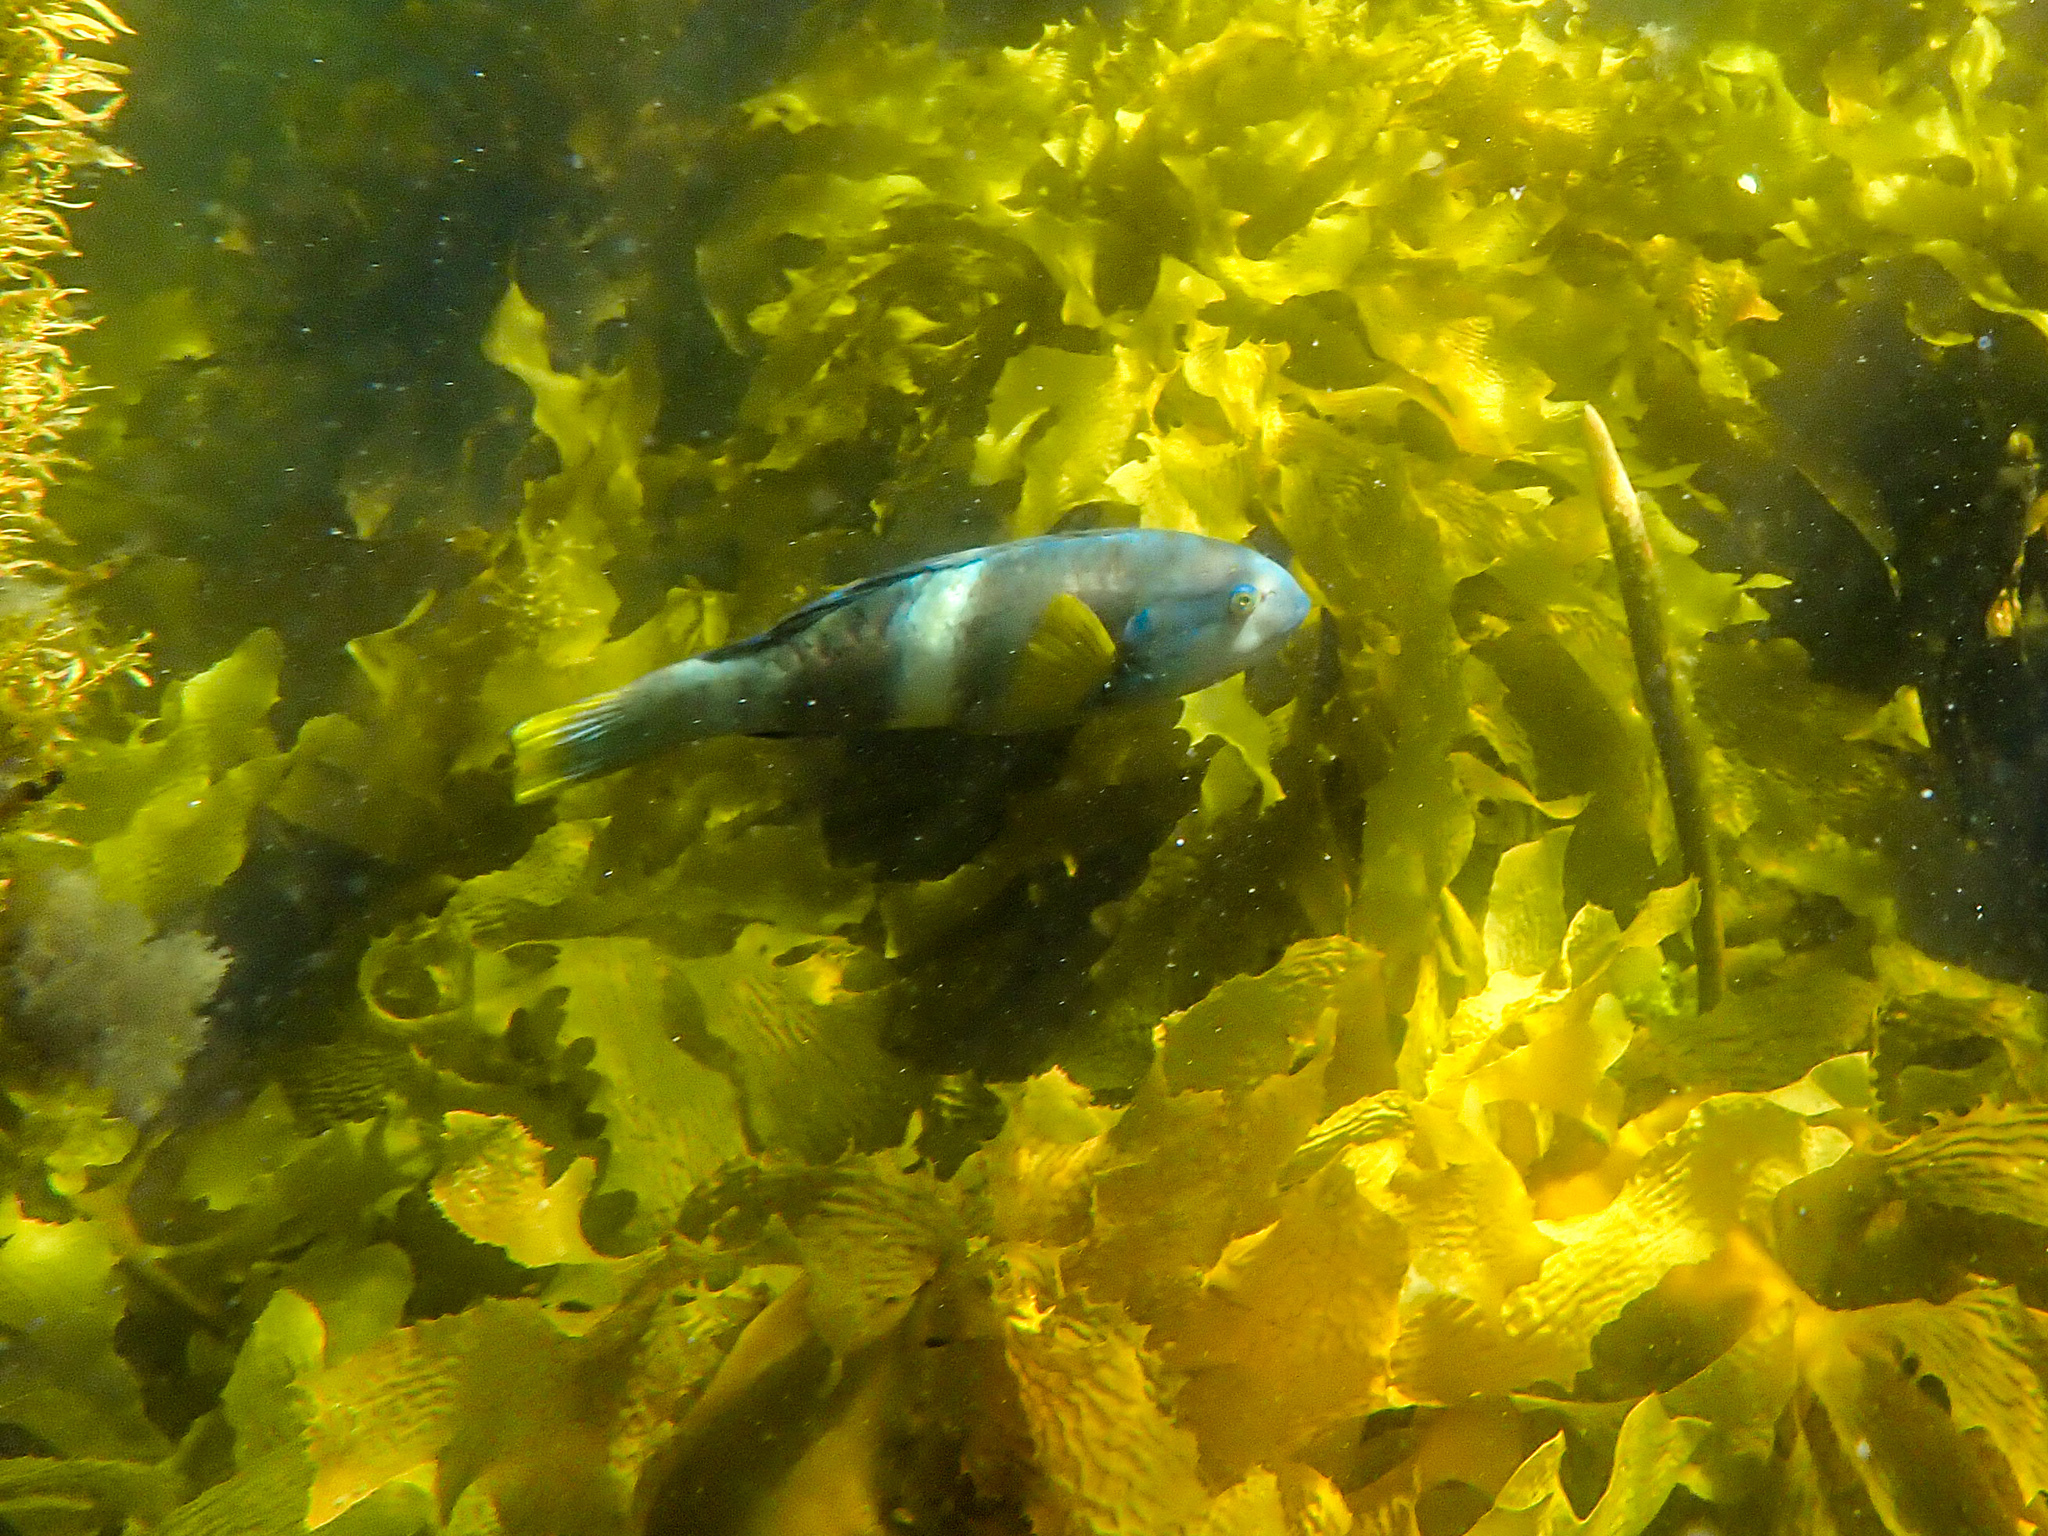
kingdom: Animalia
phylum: Chordata
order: Perciformes
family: Labridae
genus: Notolabrus
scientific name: Notolabrus tetricus
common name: Blue-throated parrotfish
